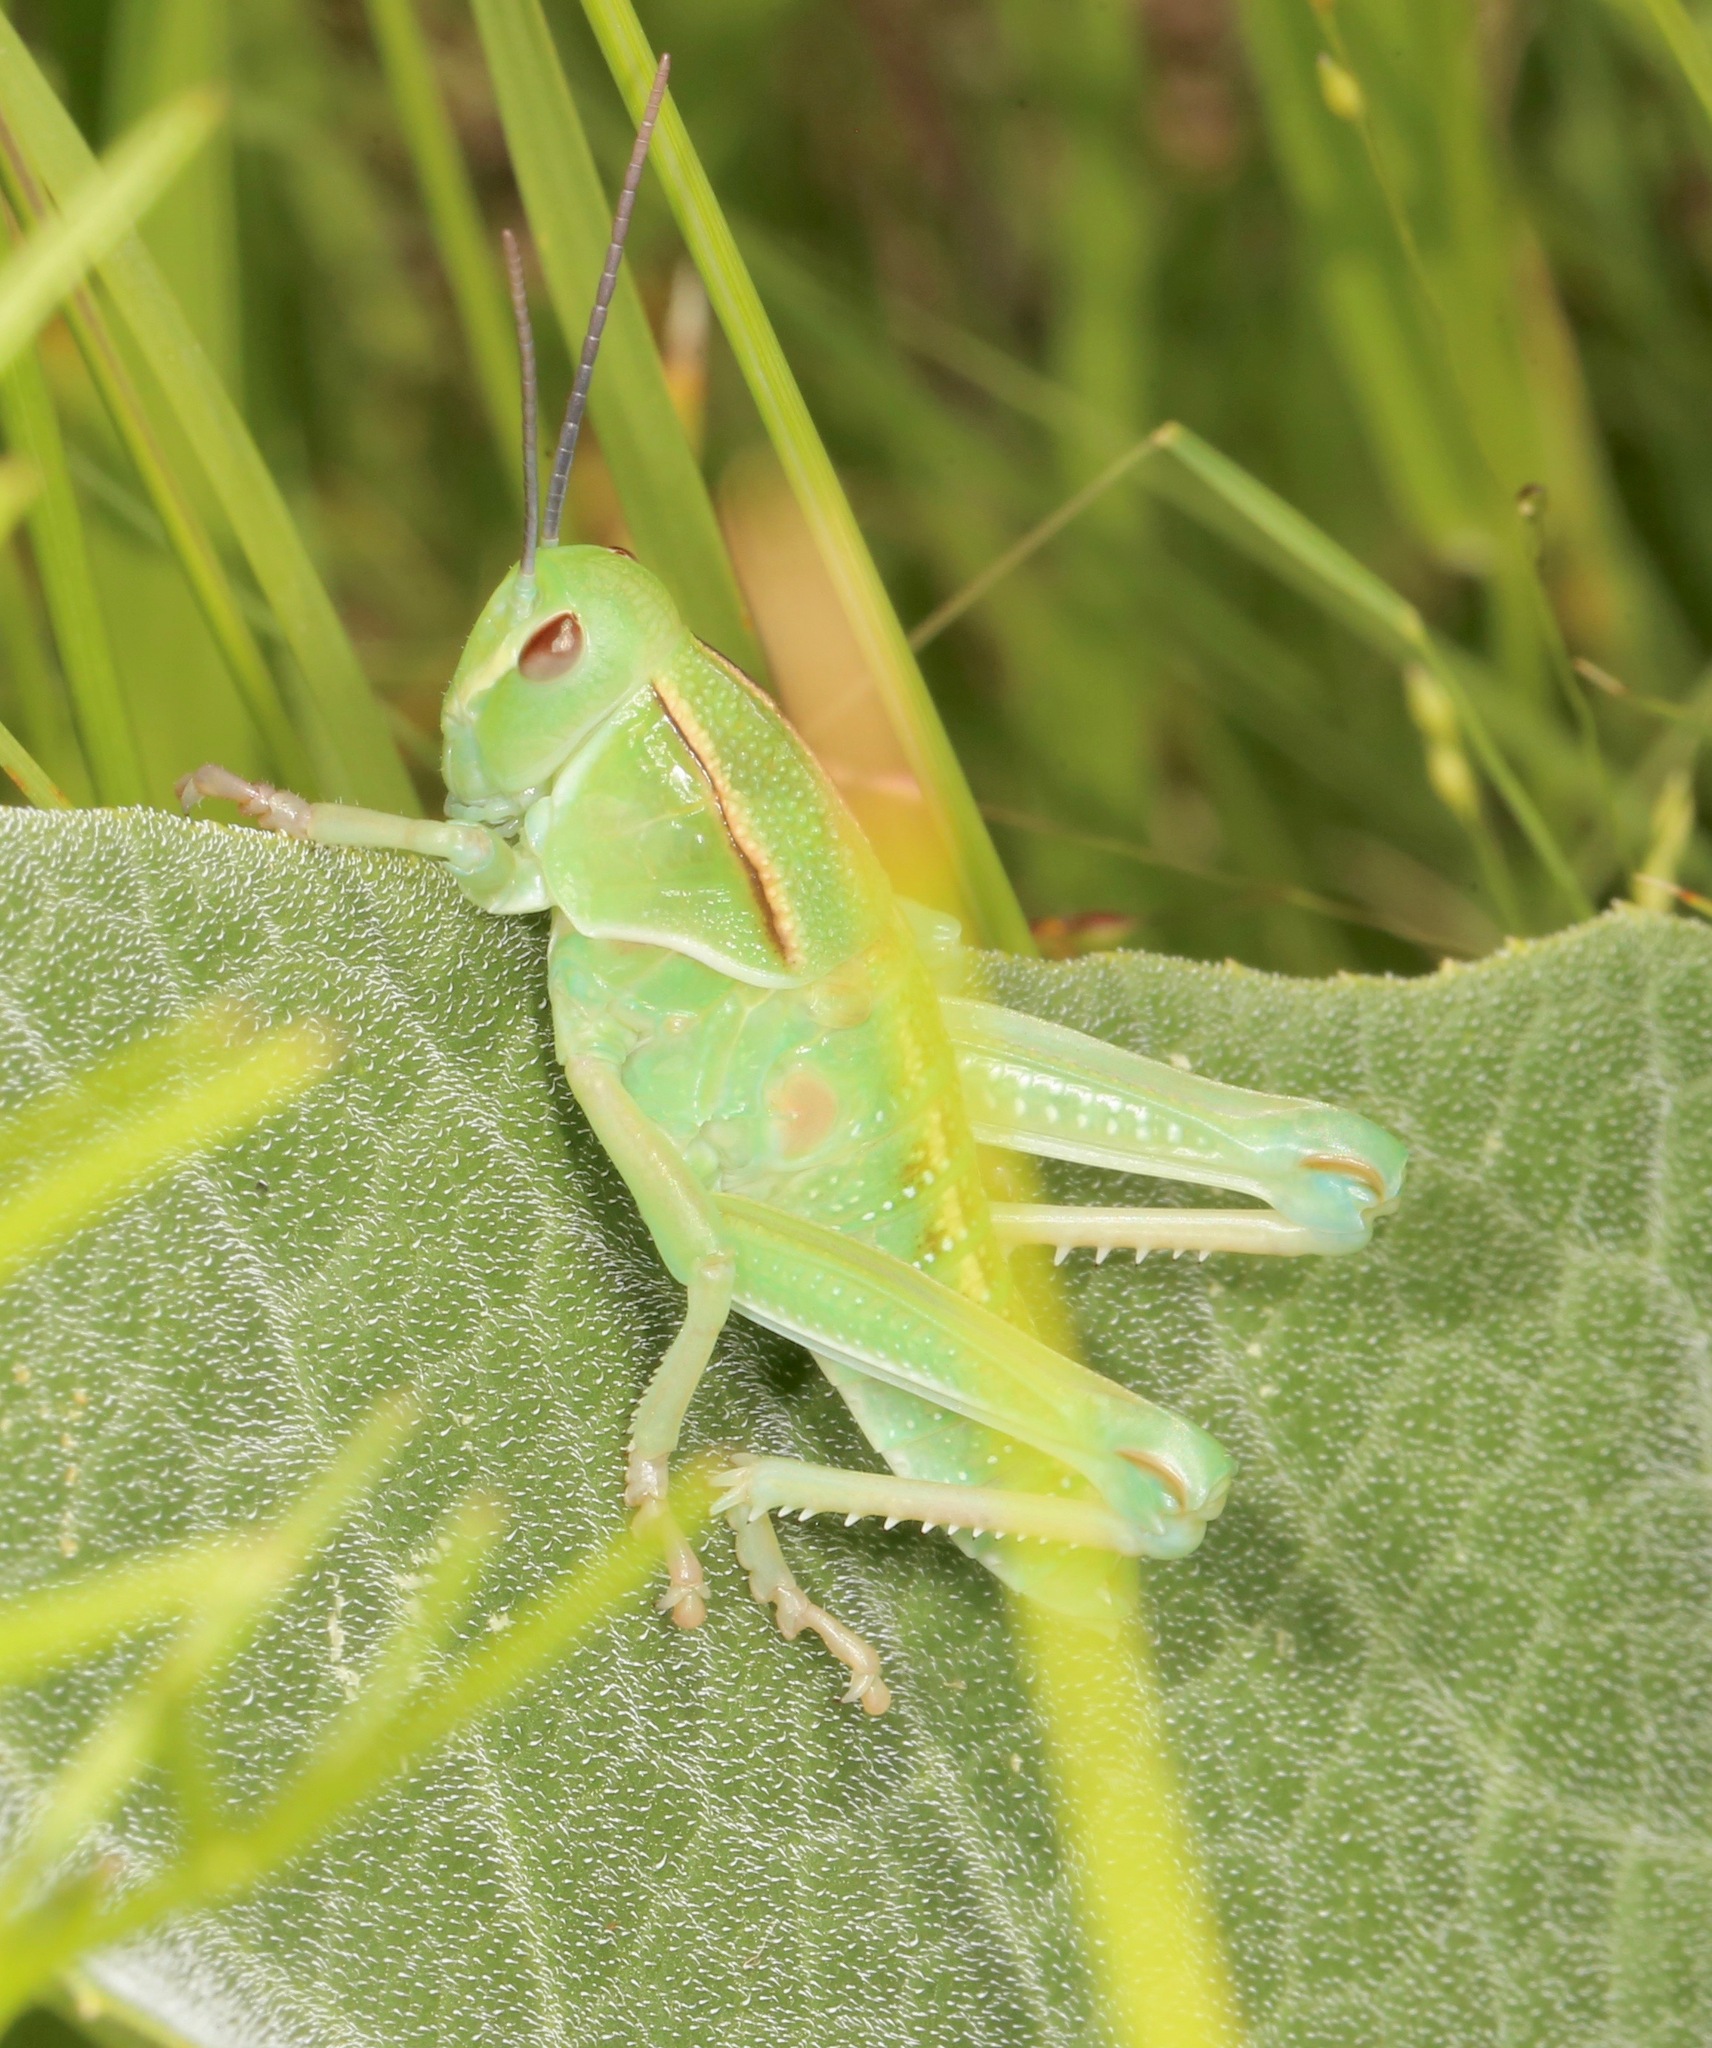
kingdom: Animalia
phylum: Arthropoda
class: Insecta
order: Orthoptera
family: Romaleidae
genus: Brachystola
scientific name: Brachystola magna
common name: Plains lubber grasshopper
